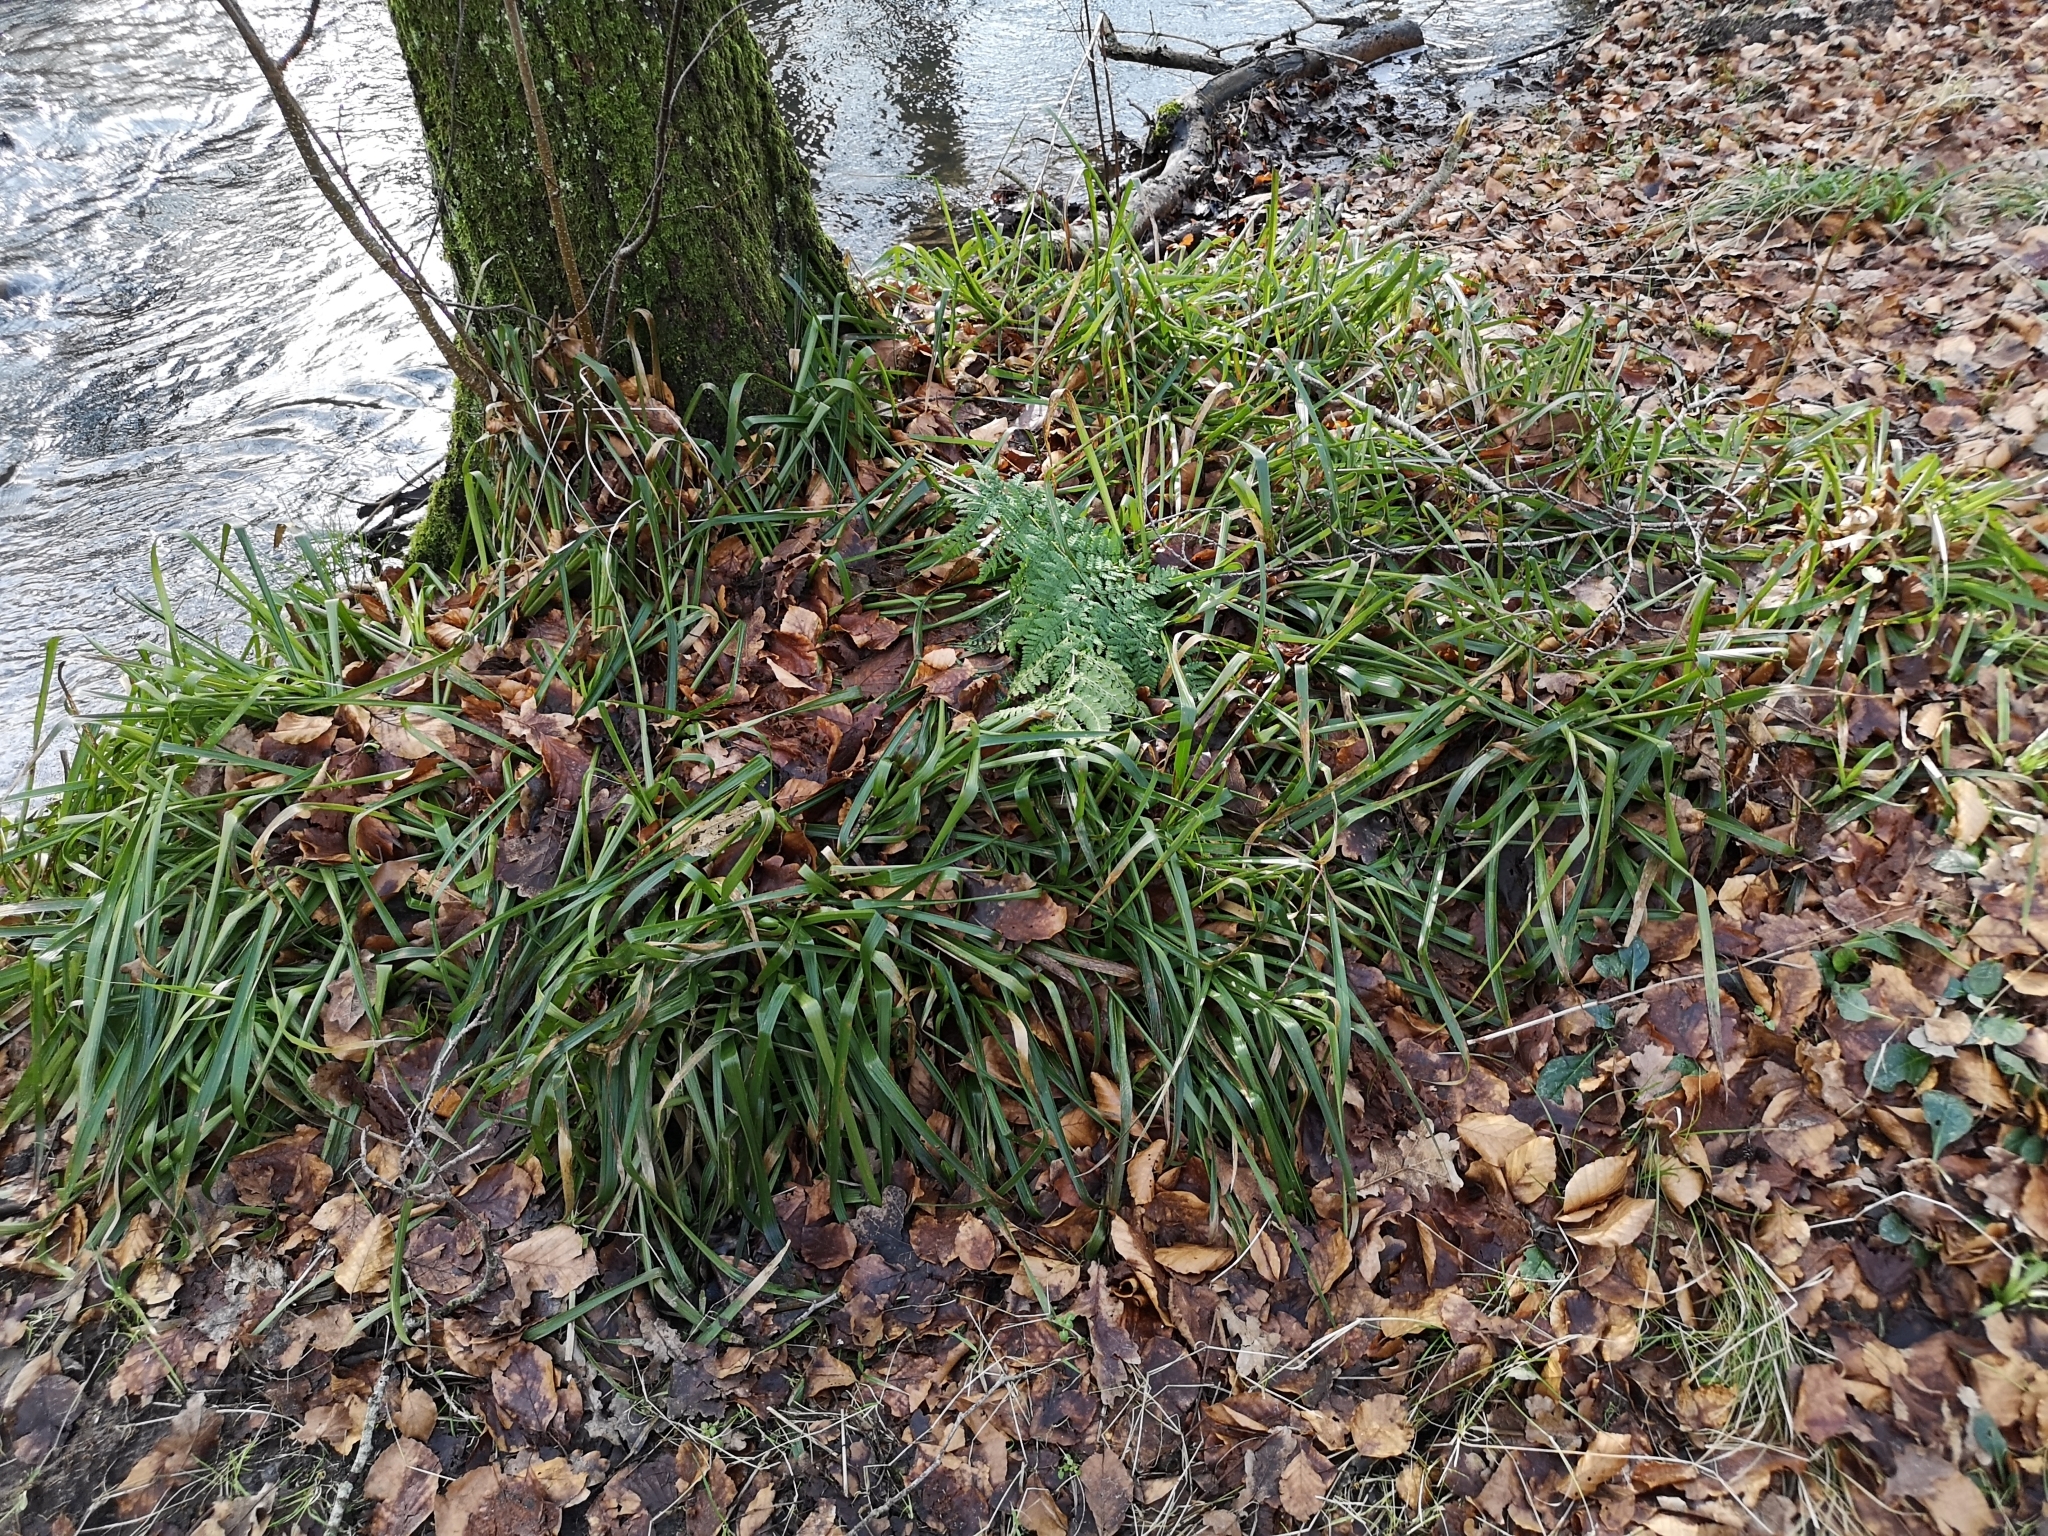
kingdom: Plantae
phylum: Tracheophyta
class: Liliopsida
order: Poales
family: Juncaceae
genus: Luzula
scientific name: Luzula sylvatica
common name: Great wood-rush
